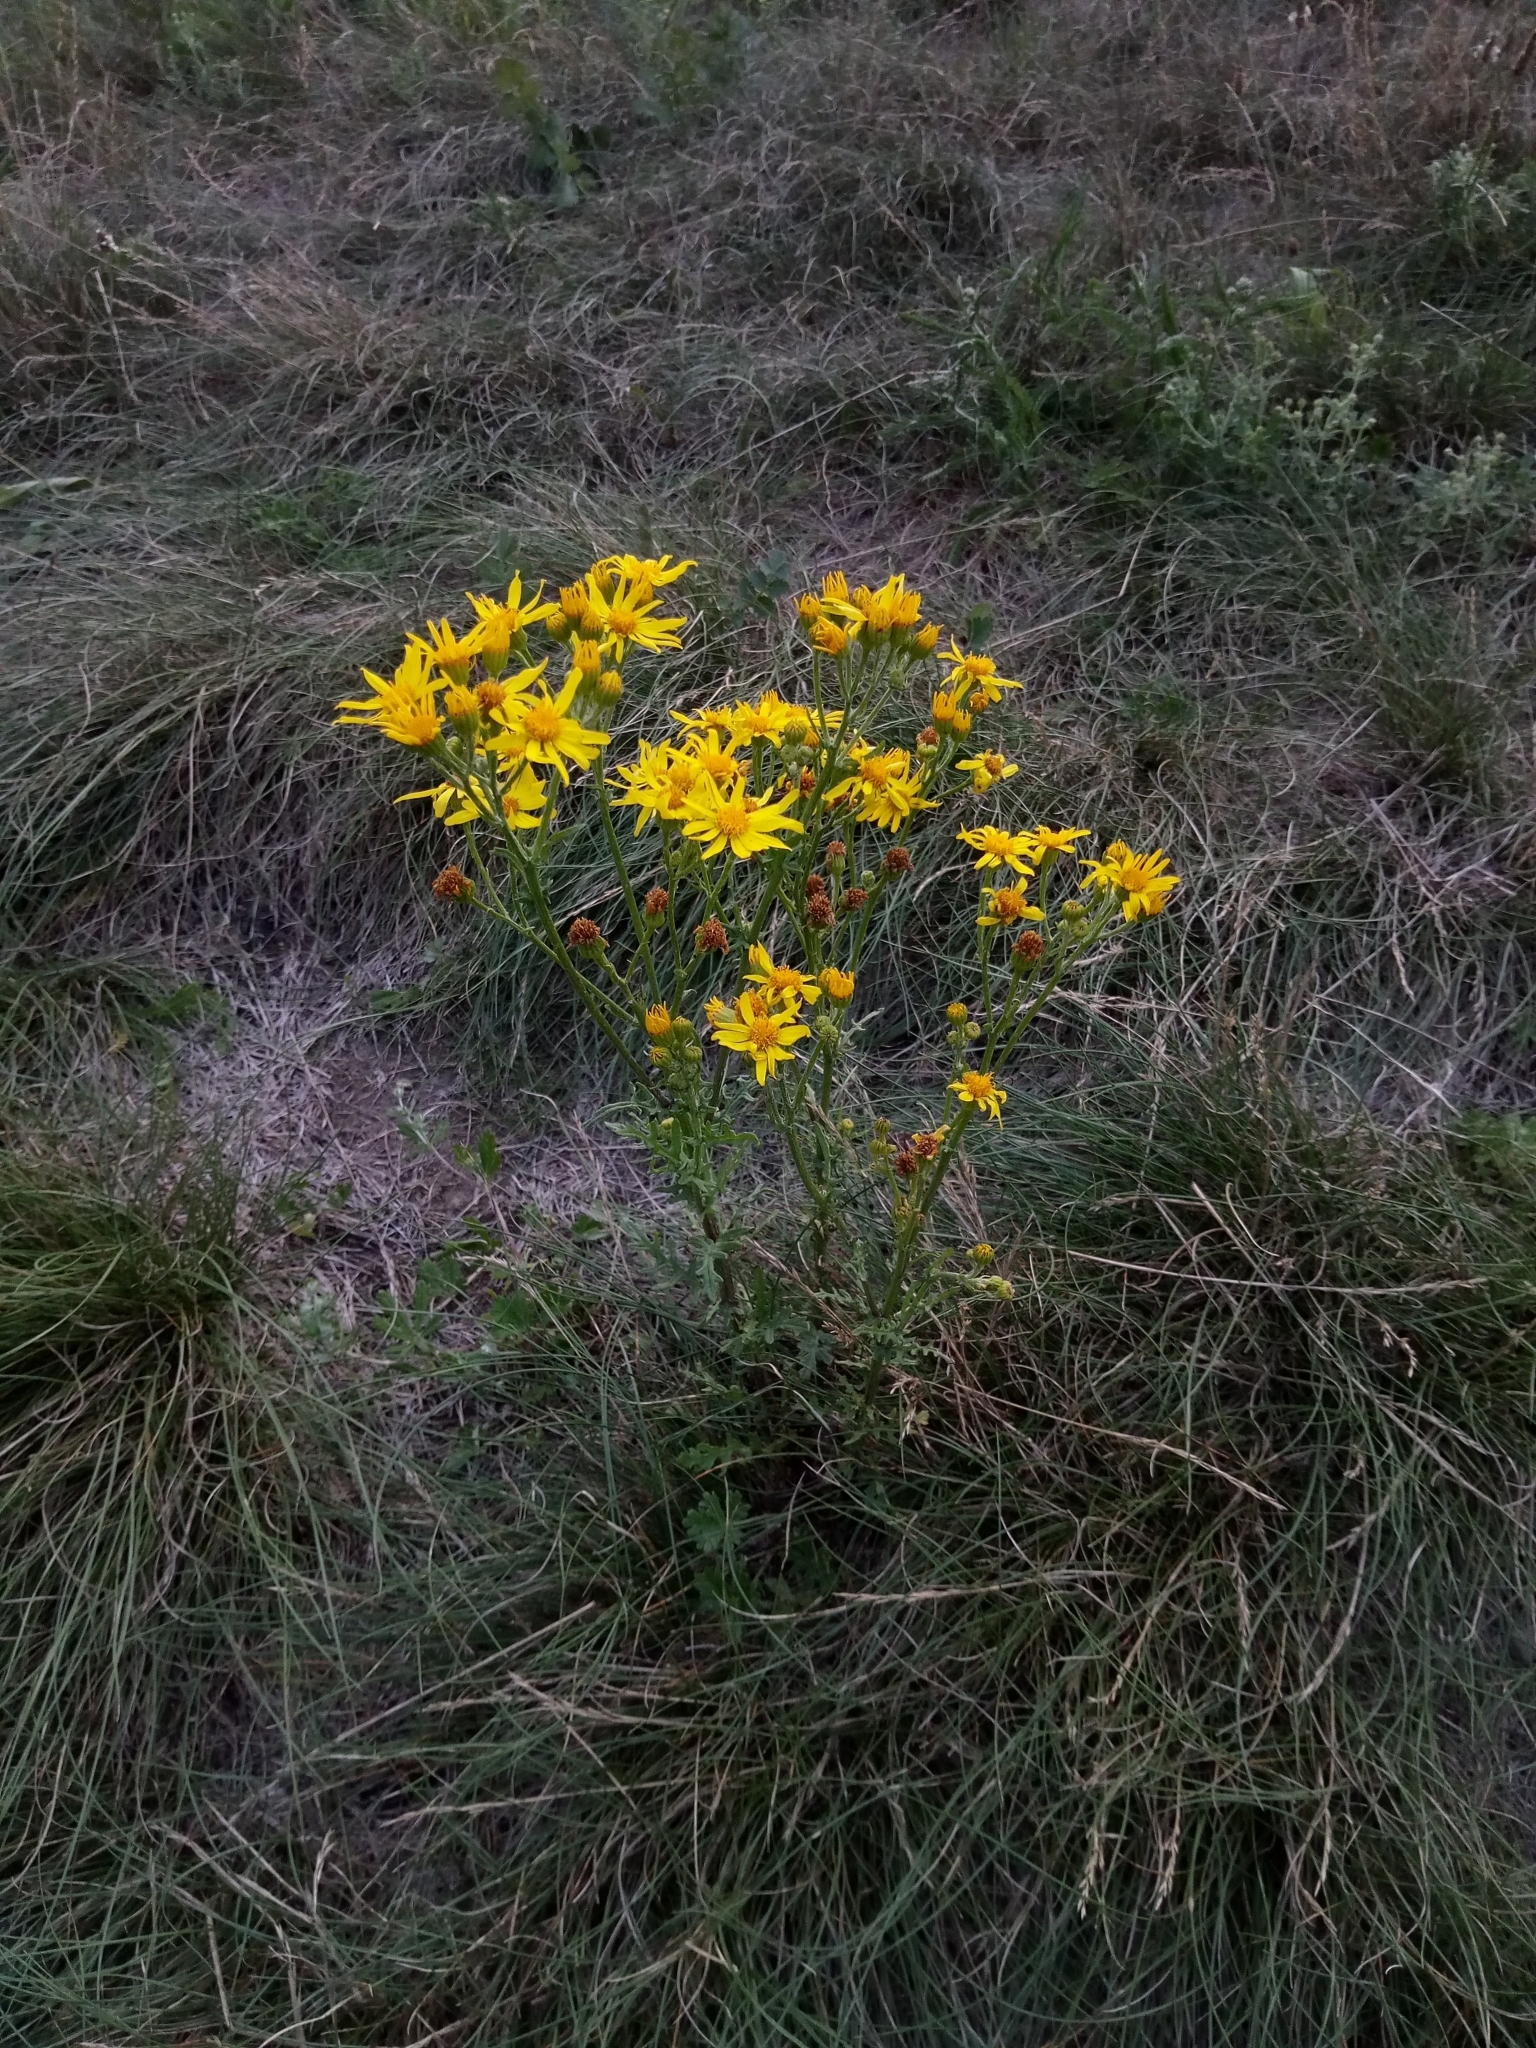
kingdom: Plantae
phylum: Tracheophyta
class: Magnoliopsida
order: Asterales
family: Asteraceae
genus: Jacobaea
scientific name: Jacobaea vulgaris
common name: Stinking willie
